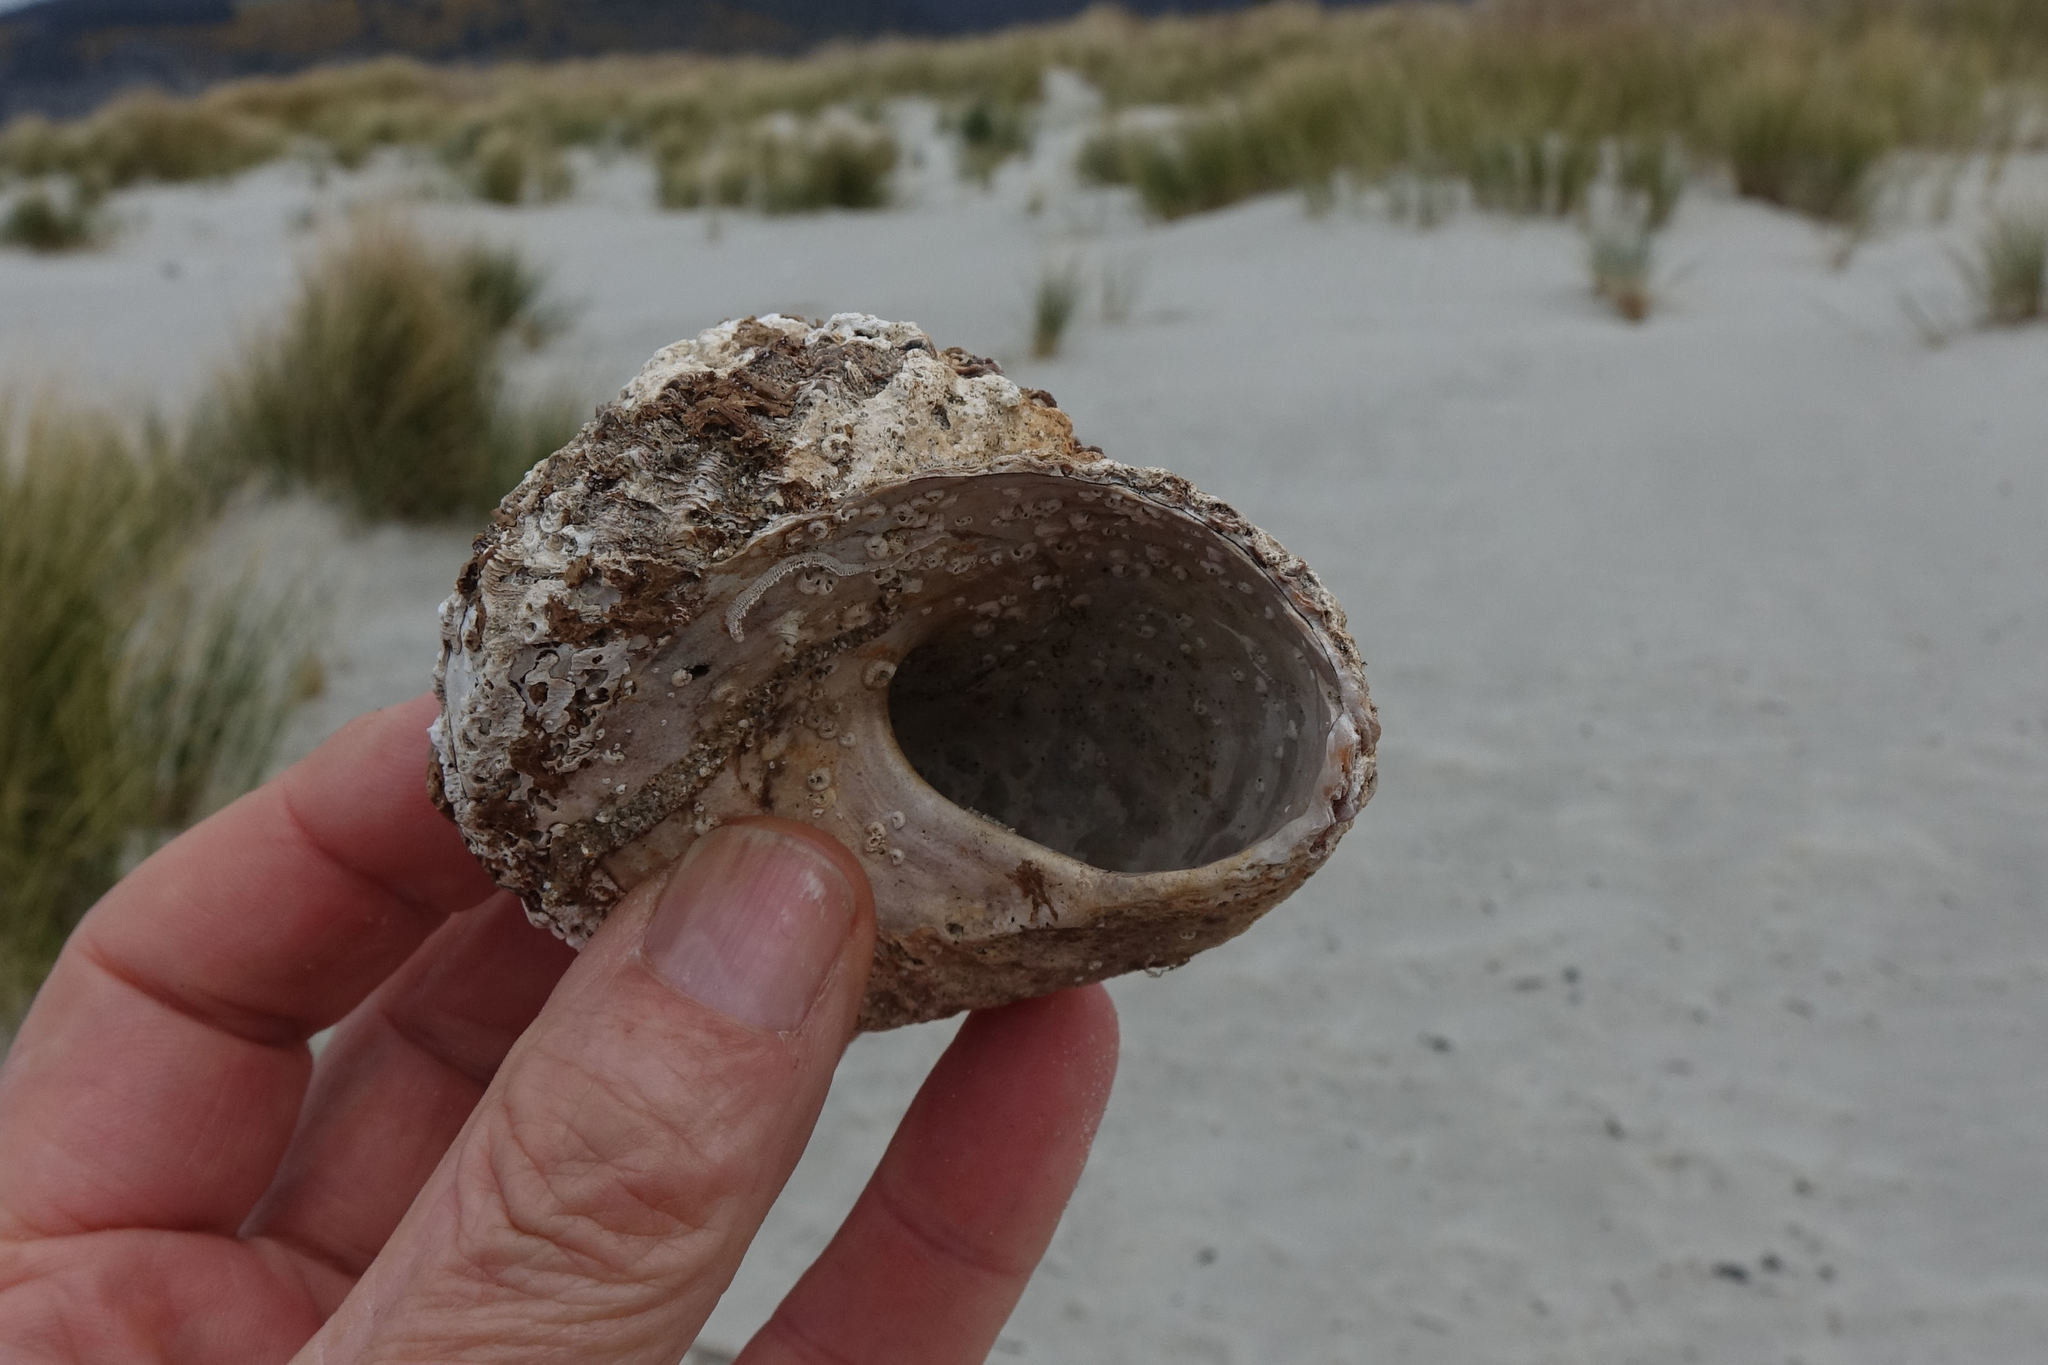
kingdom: Animalia
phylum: Mollusca
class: Gastropoda
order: Trochida
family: Turbinidae
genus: Cookia
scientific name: Cookia sulcata
